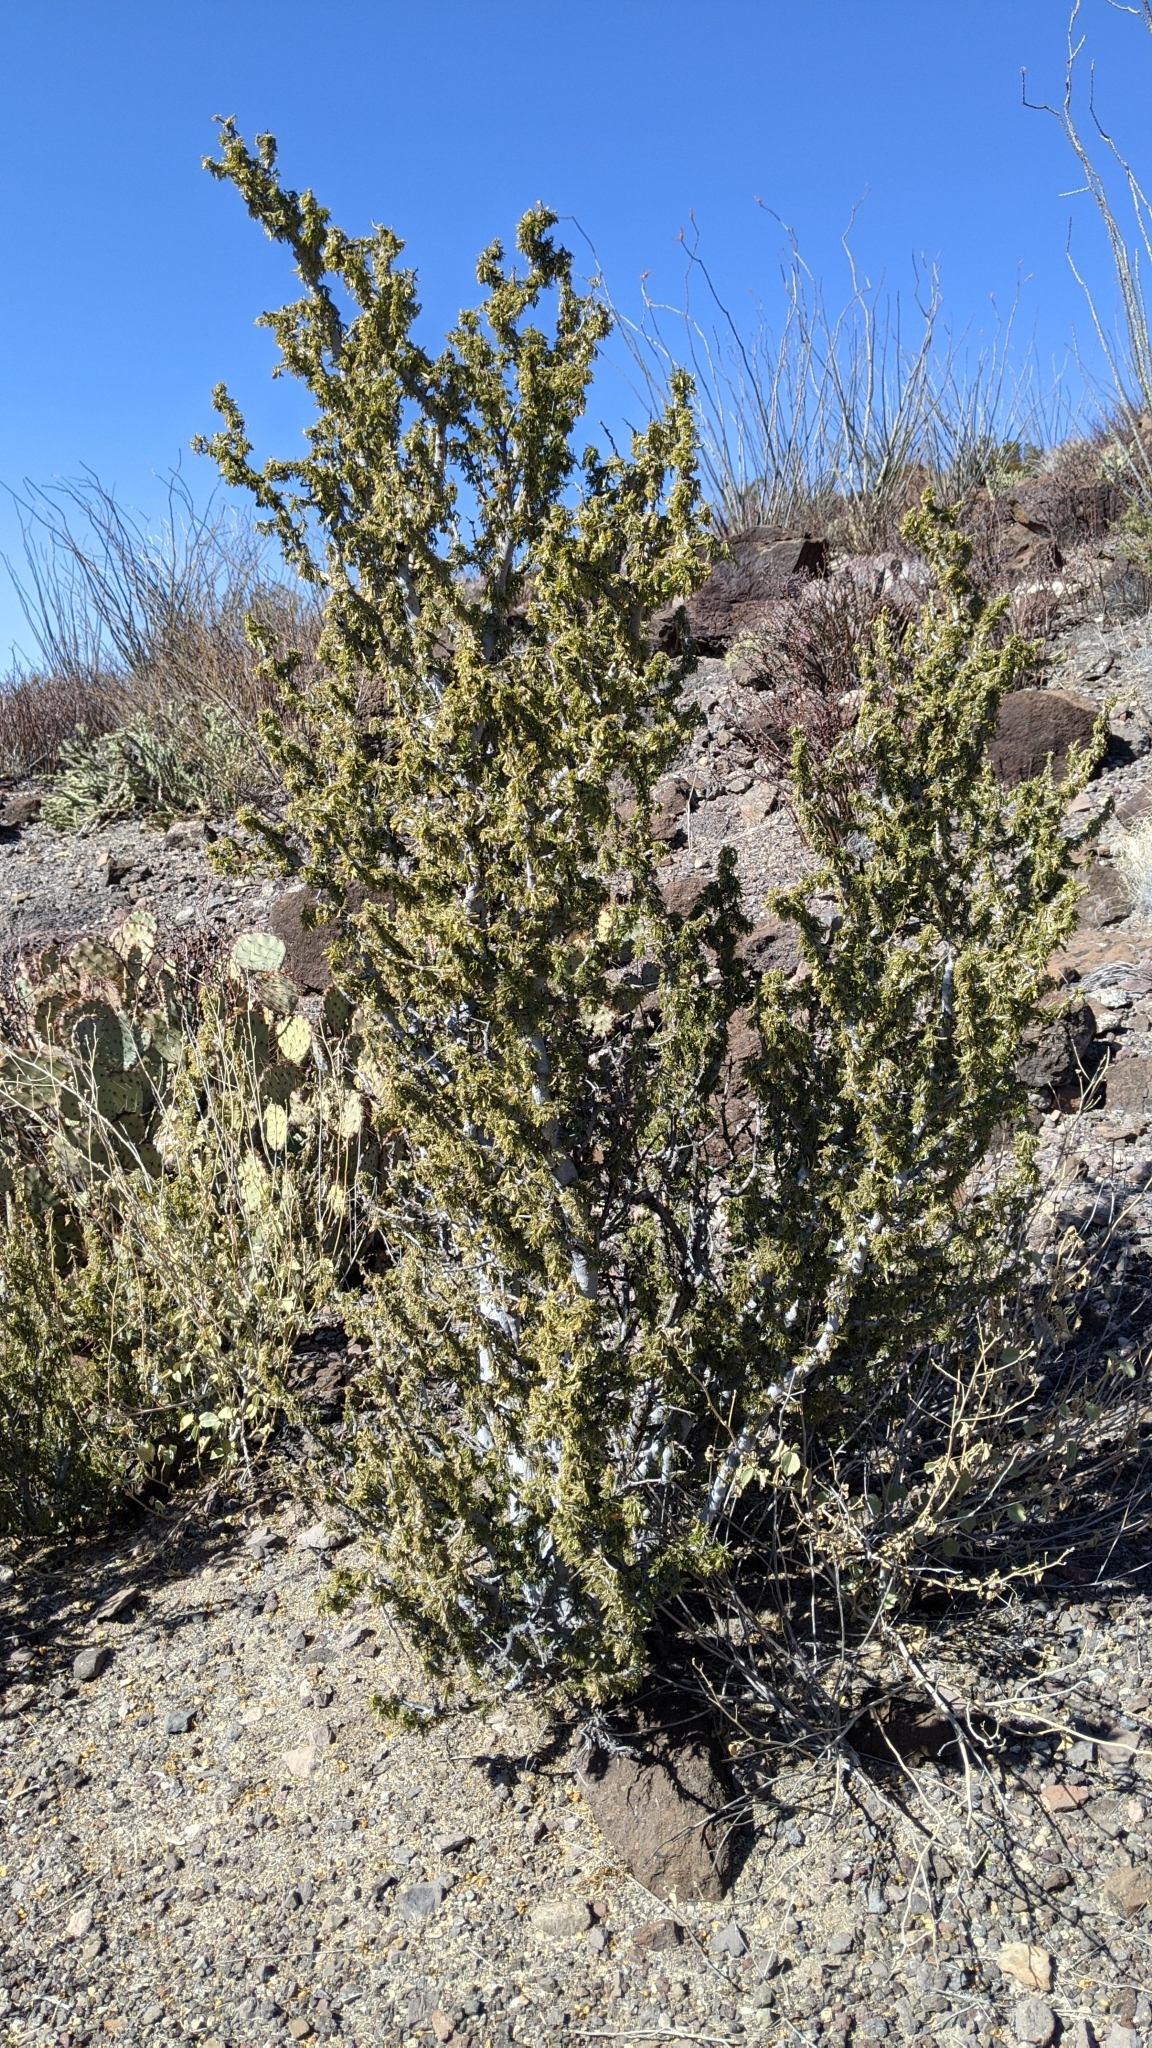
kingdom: Plantae
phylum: Tracheophyta
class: Magnoliopsida
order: Zygophyllales
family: Zygophyllaceae
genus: Porlieria
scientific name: Porlieria angustifolia
